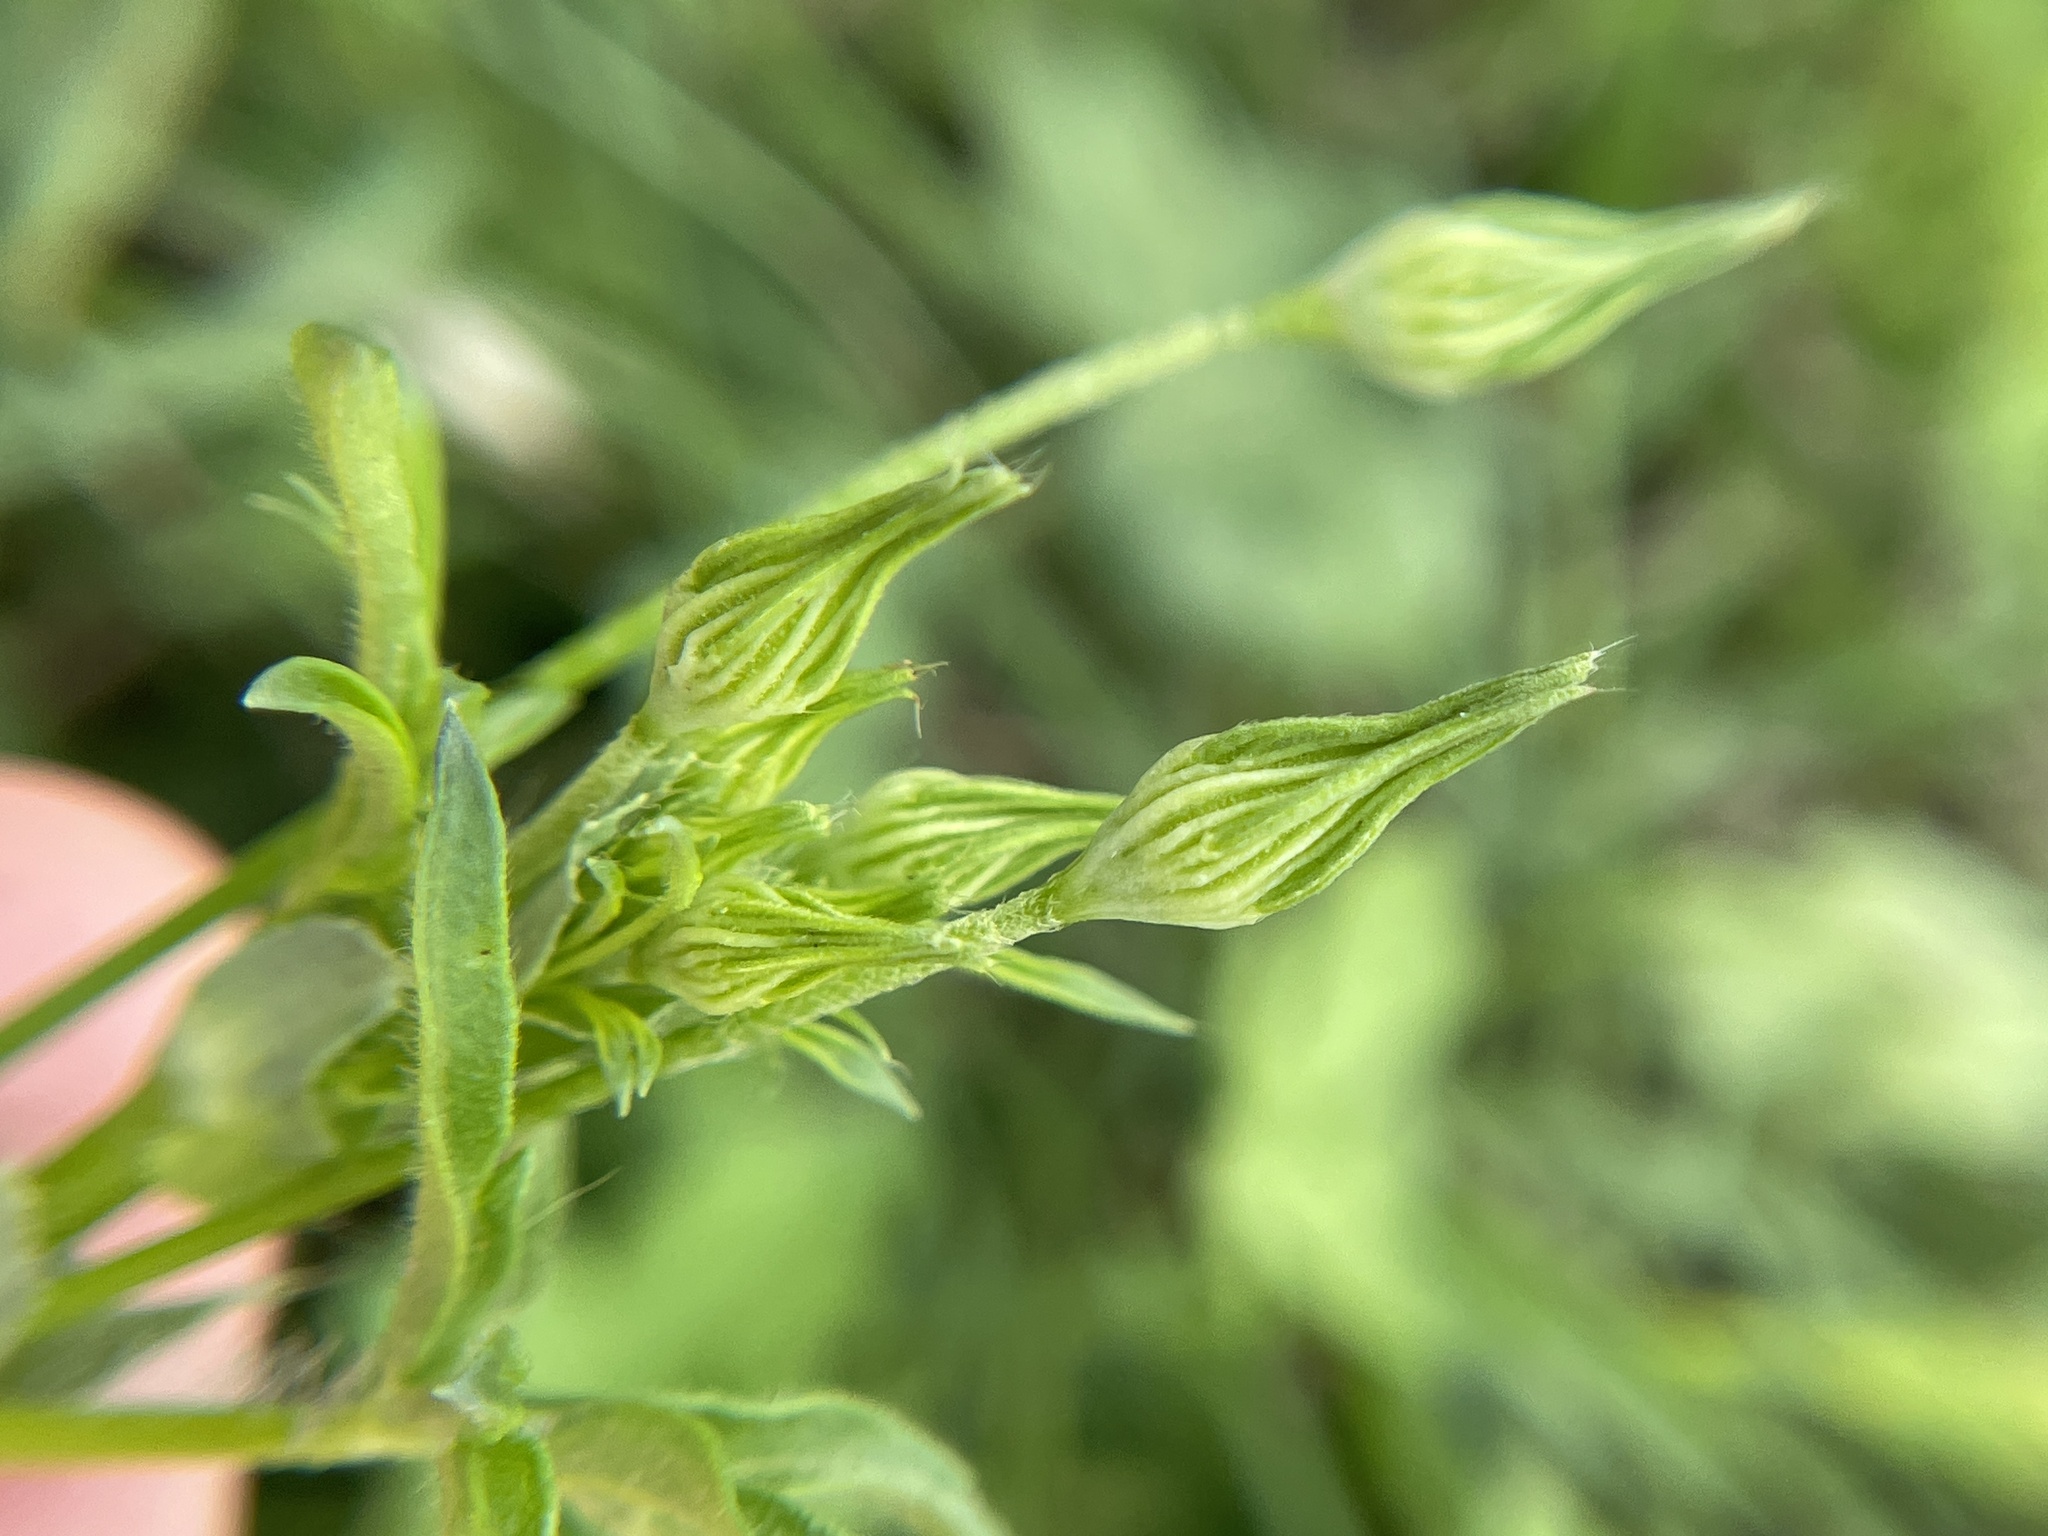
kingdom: Plantae
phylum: Tracheophyta
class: Magnoliopsida
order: Malvales
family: Malvaceae
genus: Callirhoe
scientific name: Callirhoe leiocarpa
